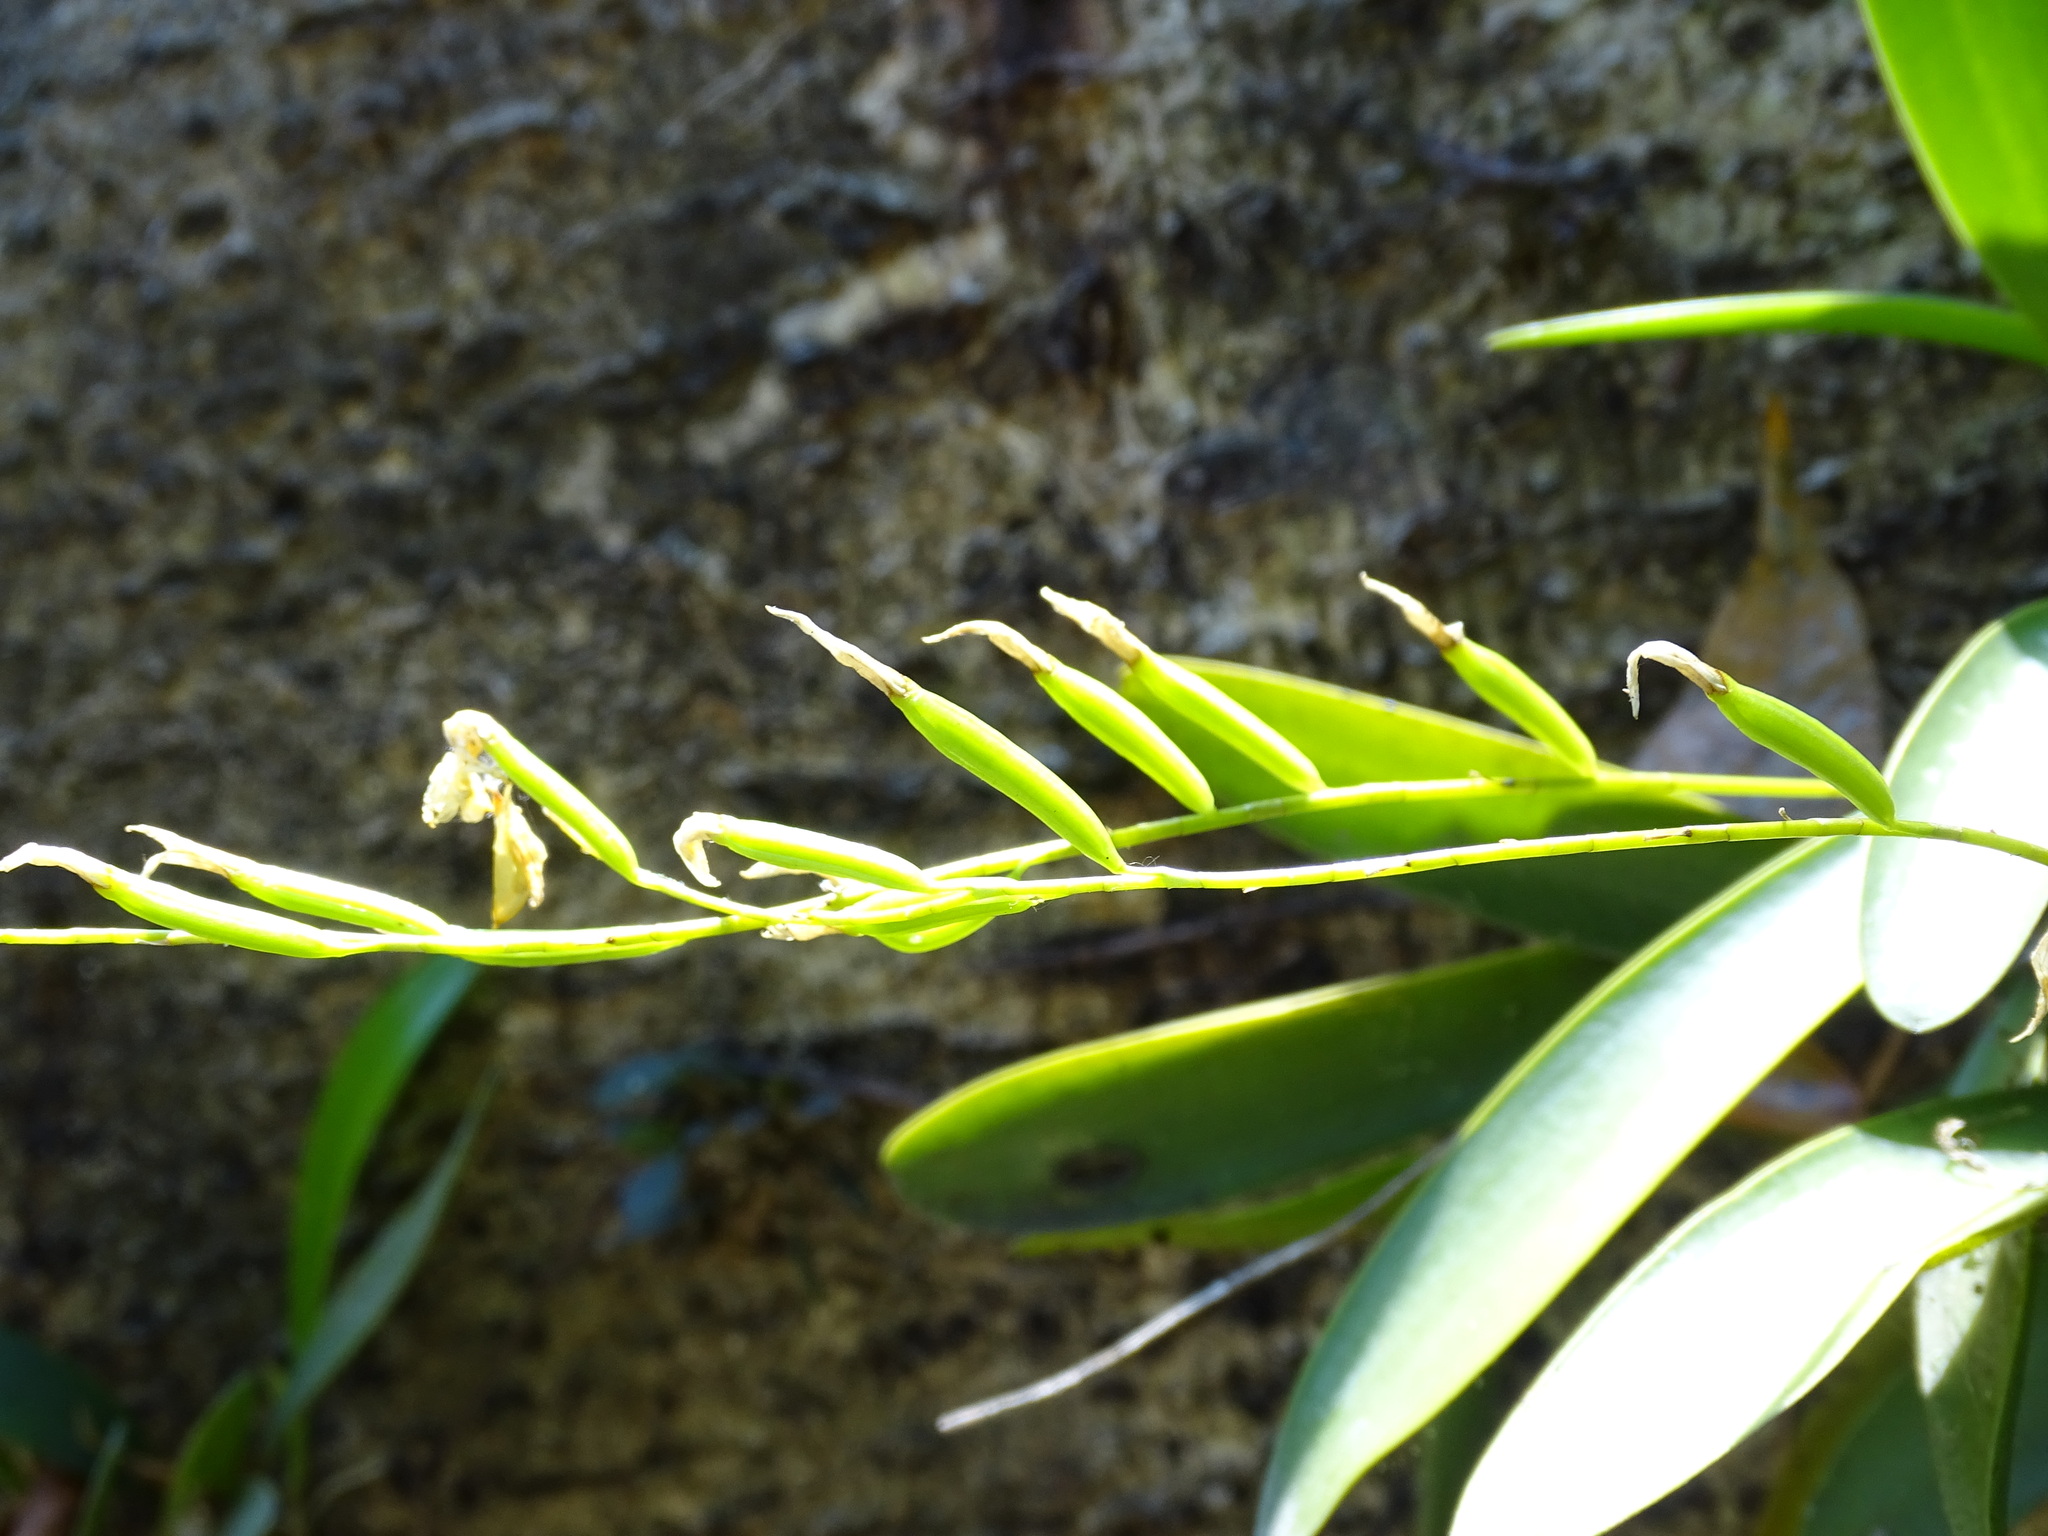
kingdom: Plantae
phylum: Tracheophyta
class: Liliopsida
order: Asparagales
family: Orchidaceae
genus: Pleurothallis
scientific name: Pleurothallis quadrifida
